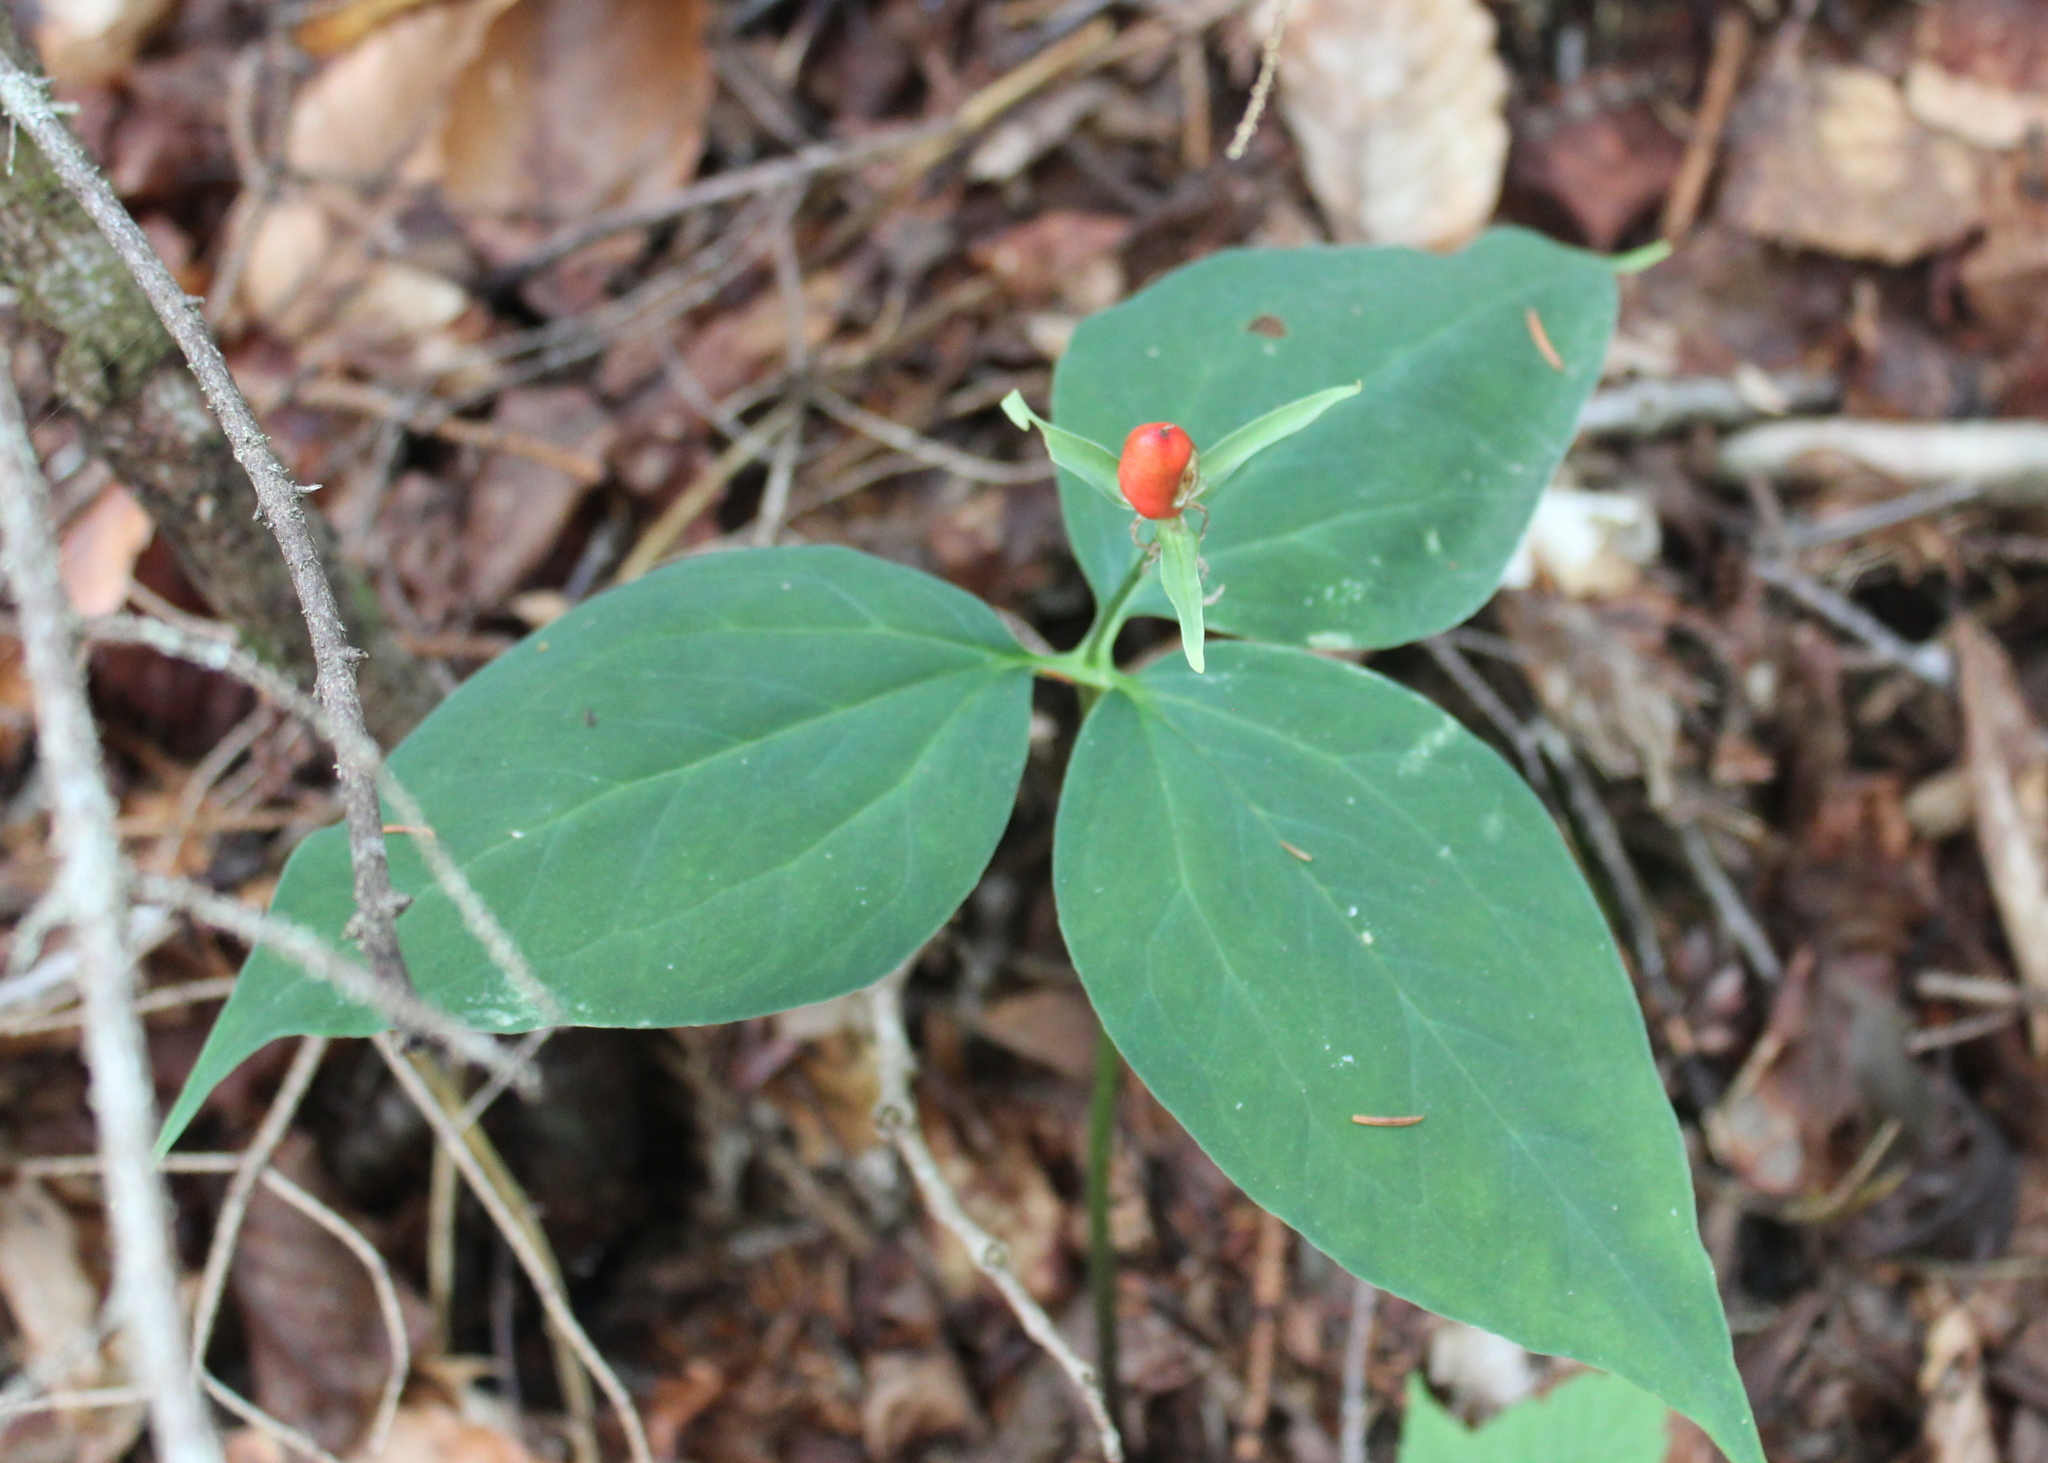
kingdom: Plantae
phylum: Tracheophyta
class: Liliopsida
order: Liliales
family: Melanthiaceae
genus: Trillium
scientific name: Trillium undulatum
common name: Paint trillium
